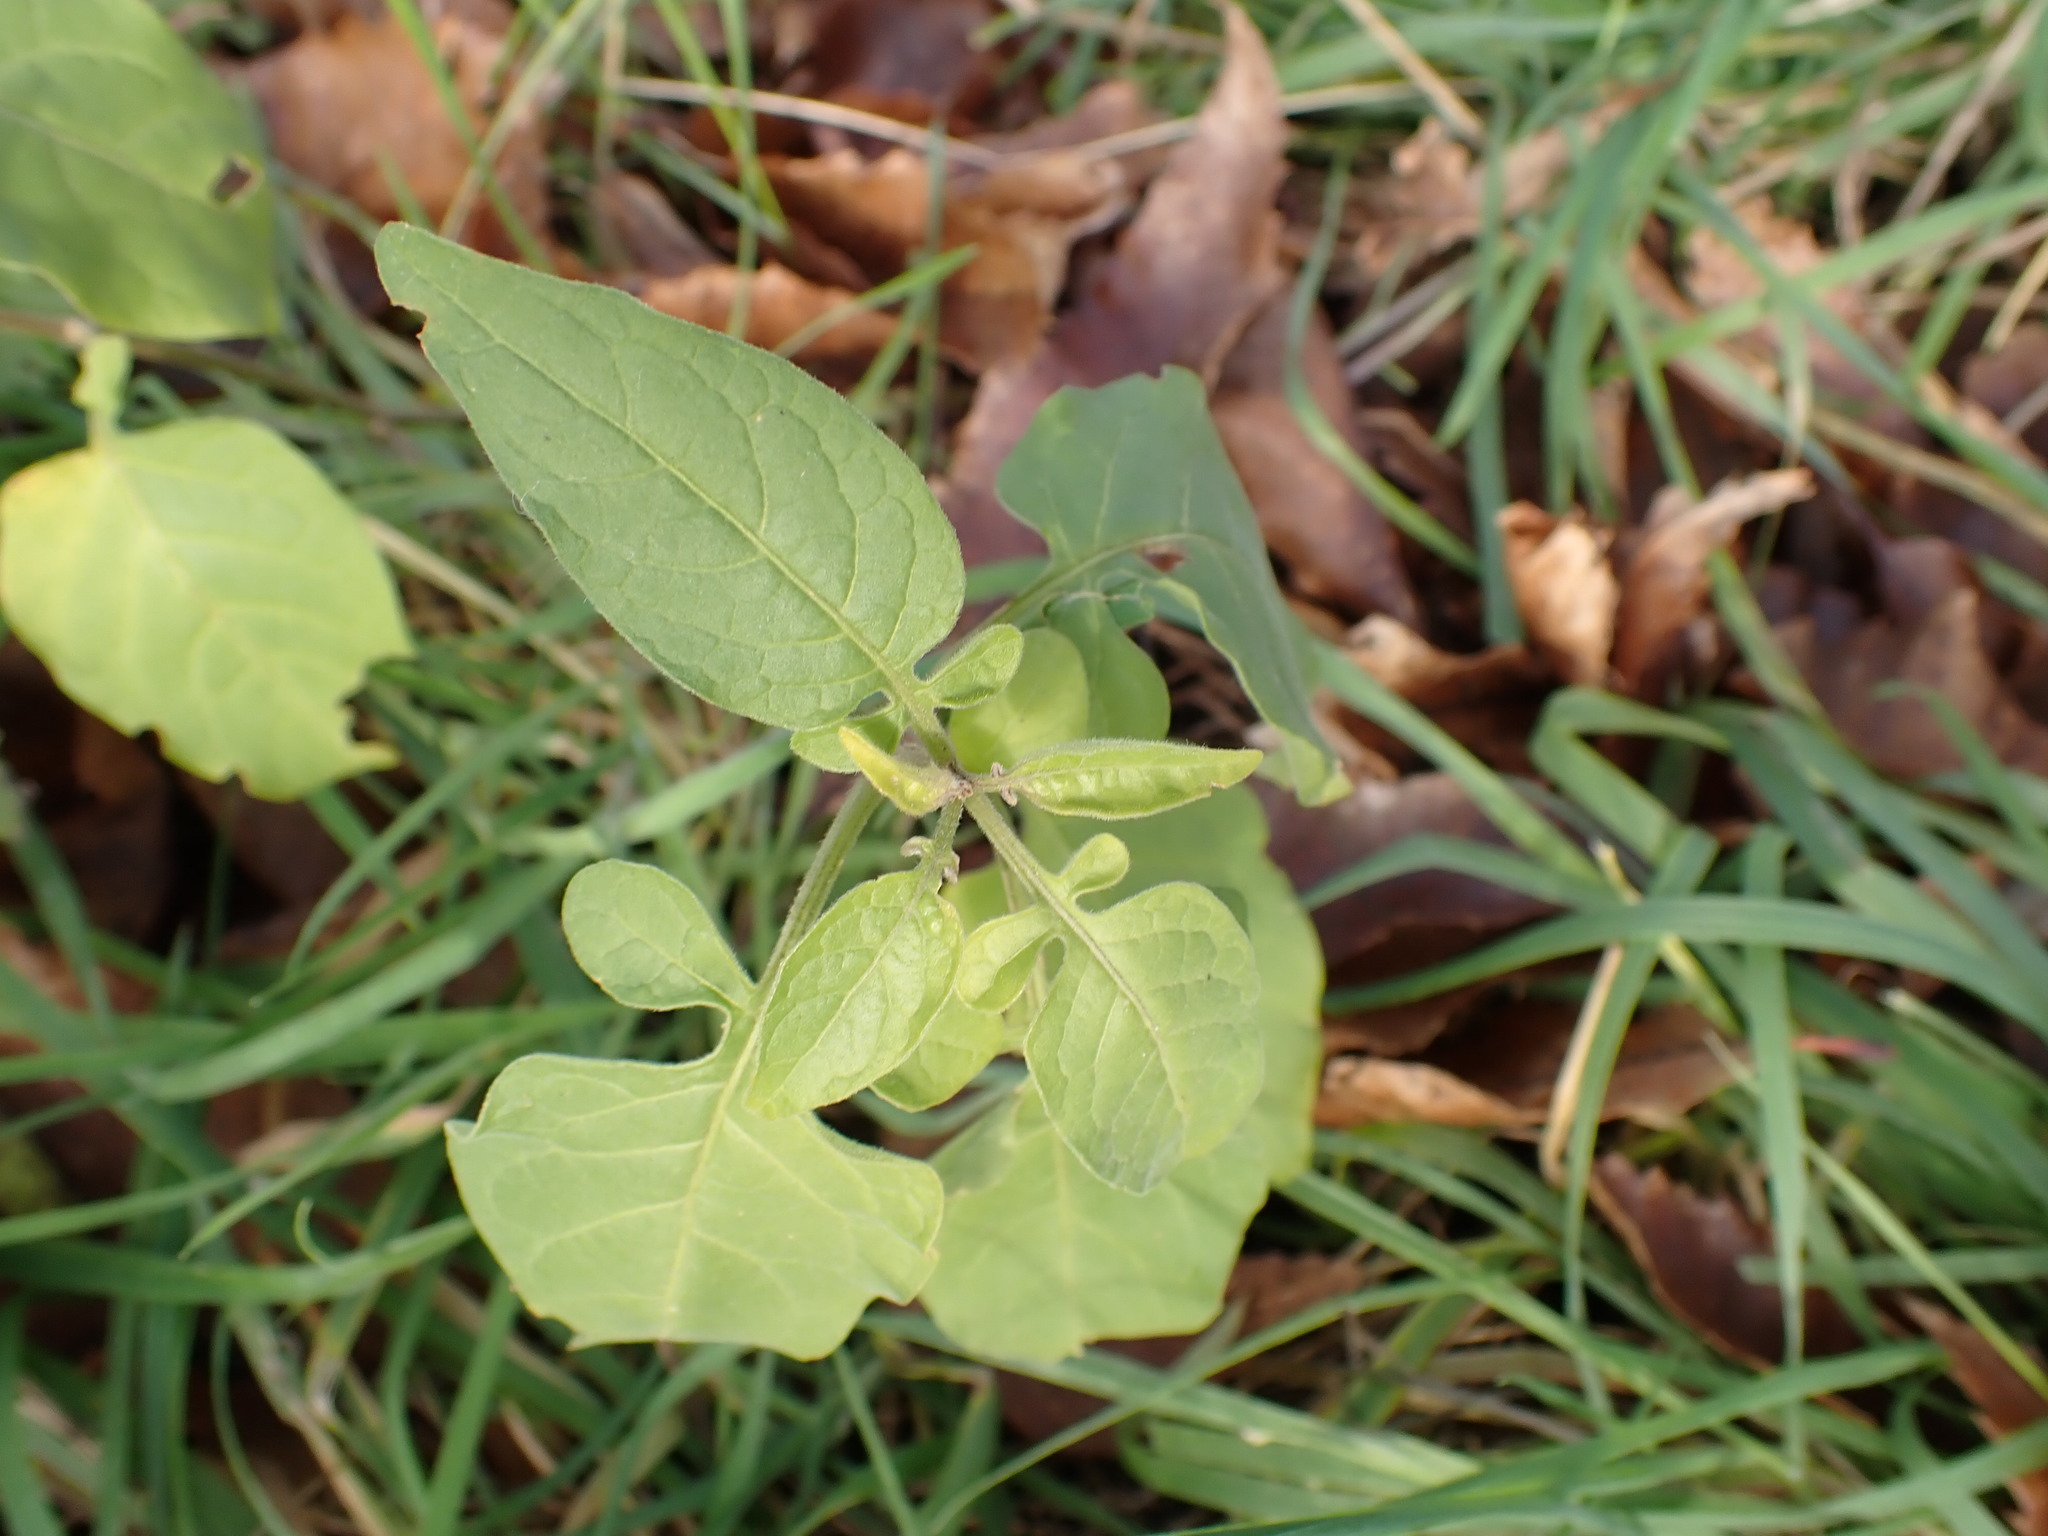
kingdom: Plantae
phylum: Tracheophyta
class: Magnoliopsida
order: Solanales
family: Solanaceae
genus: Solanum
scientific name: Solanum dulcamara
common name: Climbing nightshade
